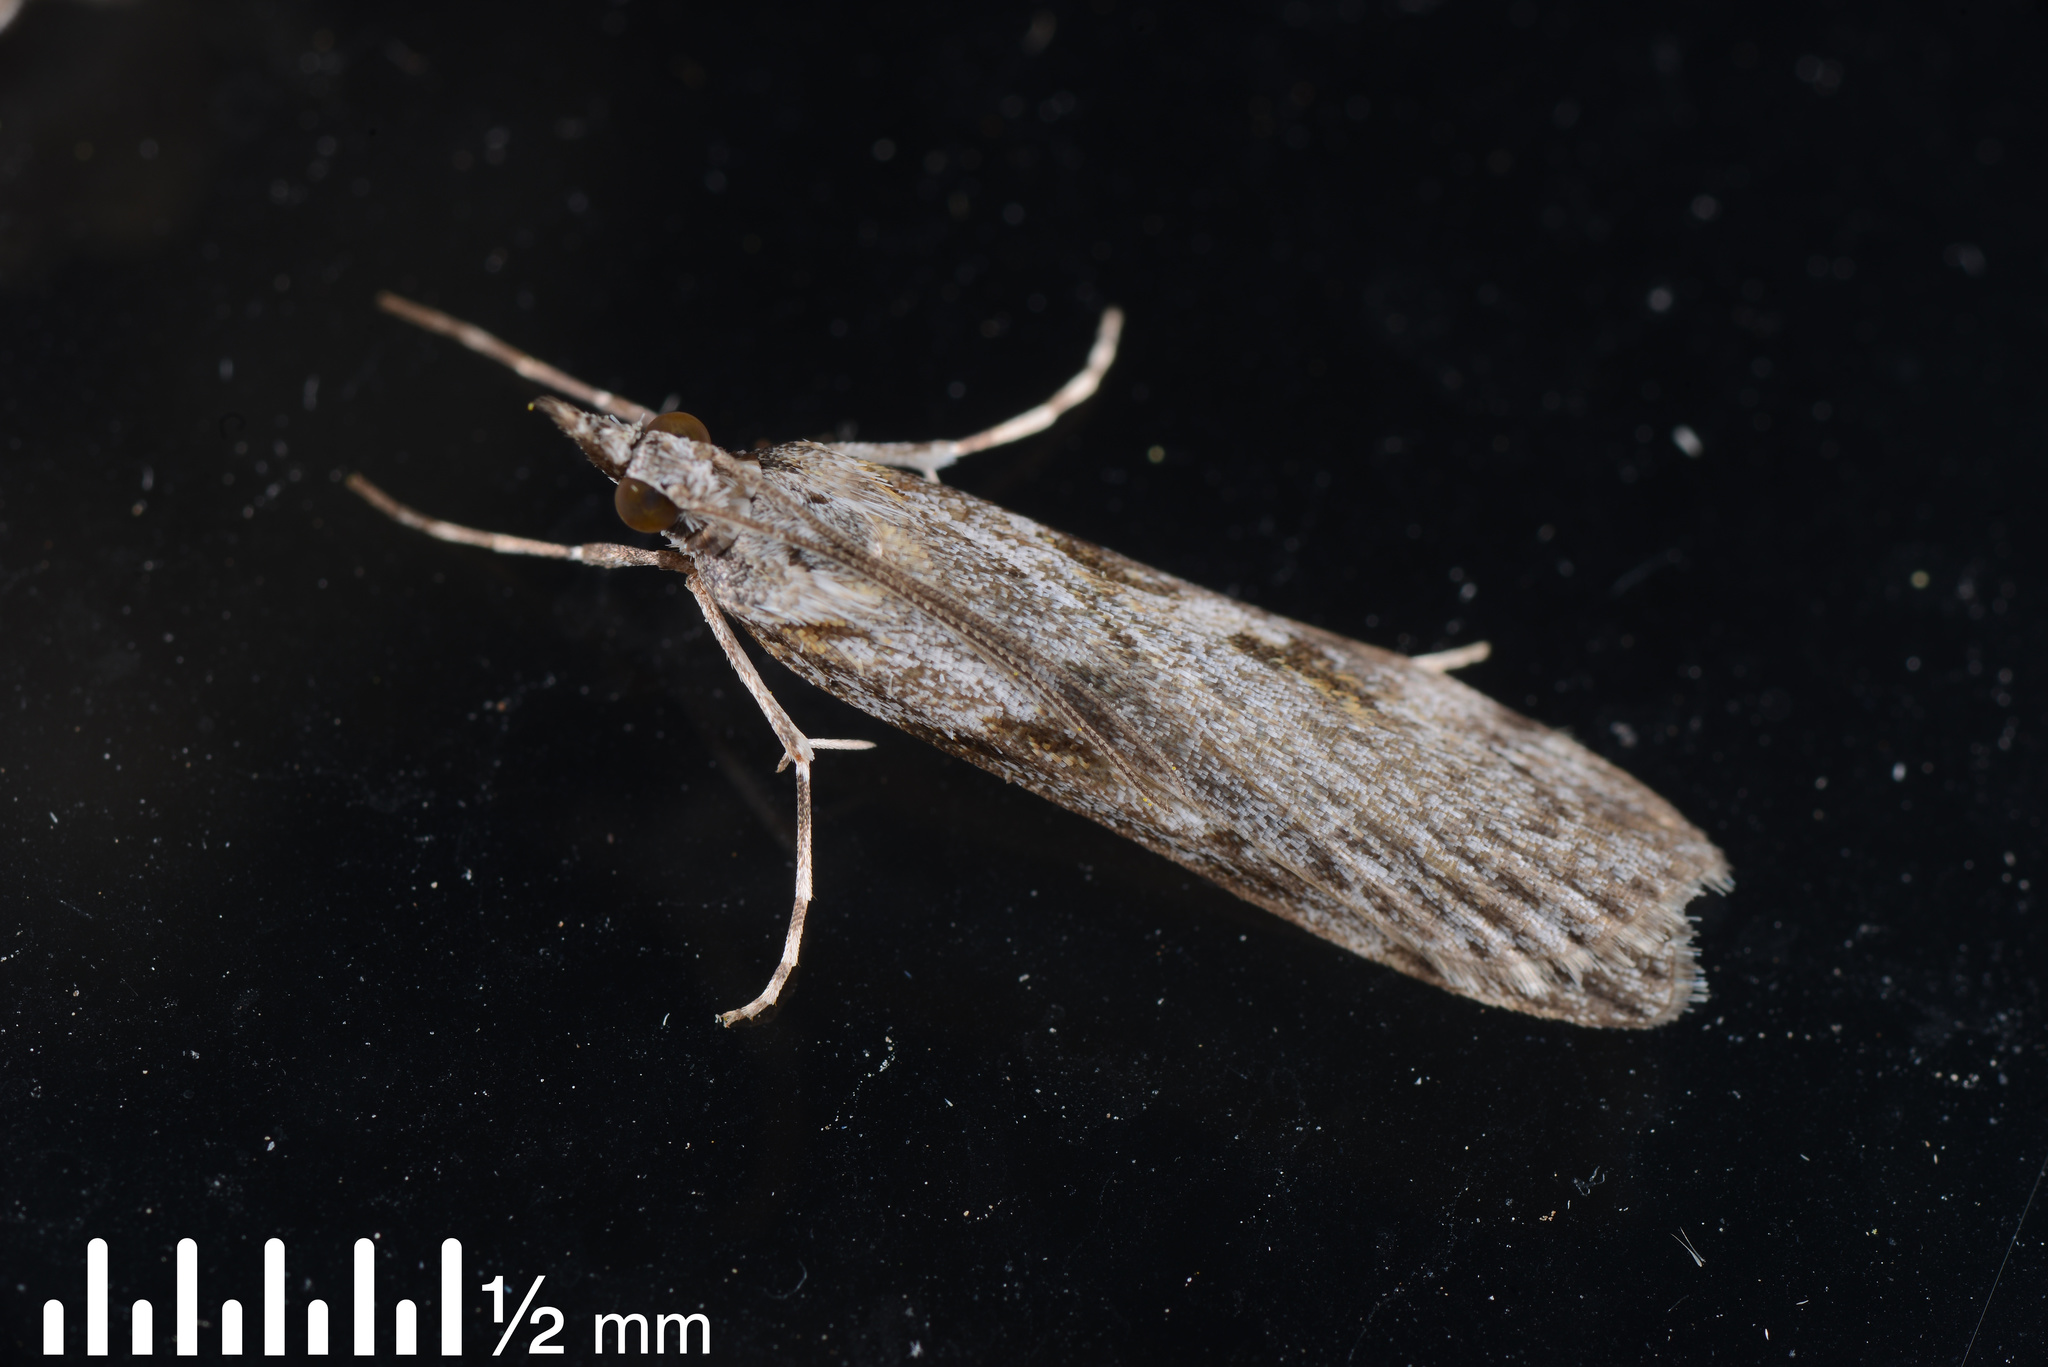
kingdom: Animalia
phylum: Arthropoda
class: Insecta
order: Lepidoptera
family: Crambidae
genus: Scoparia
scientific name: Scoparia halopis
